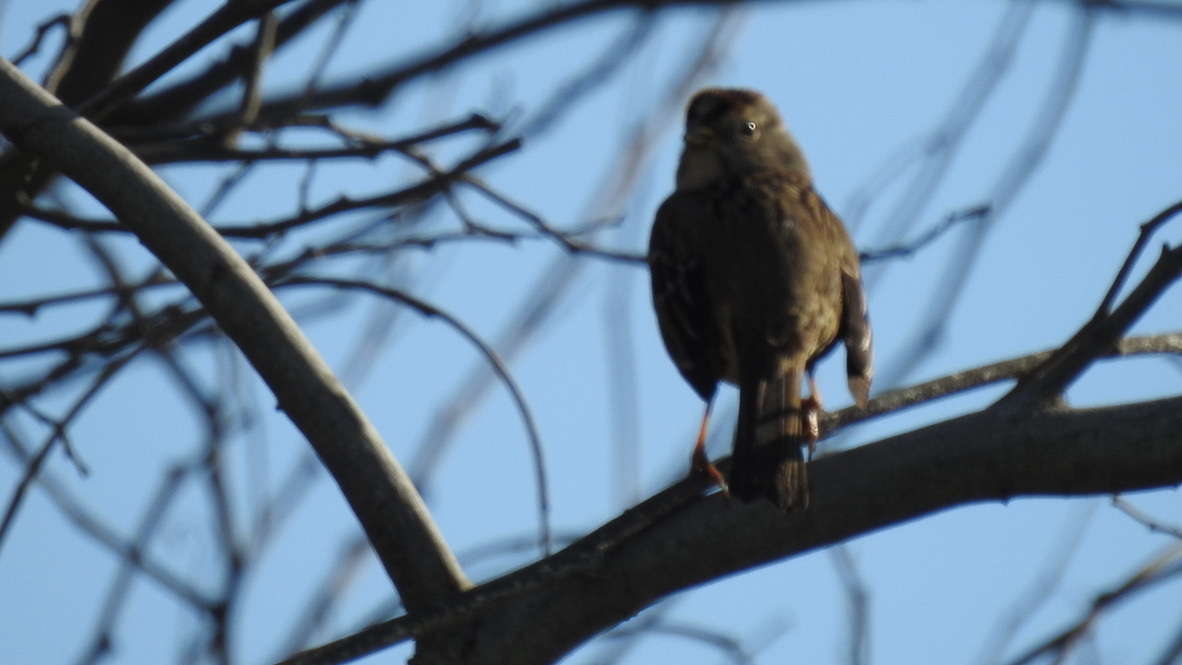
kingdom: Animalia
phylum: Chordata
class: Aves
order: Passeriformes
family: Passerellidae
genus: Zonotrichia
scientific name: Zonotrichia atricapilla
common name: Golden-crowned sparrow
